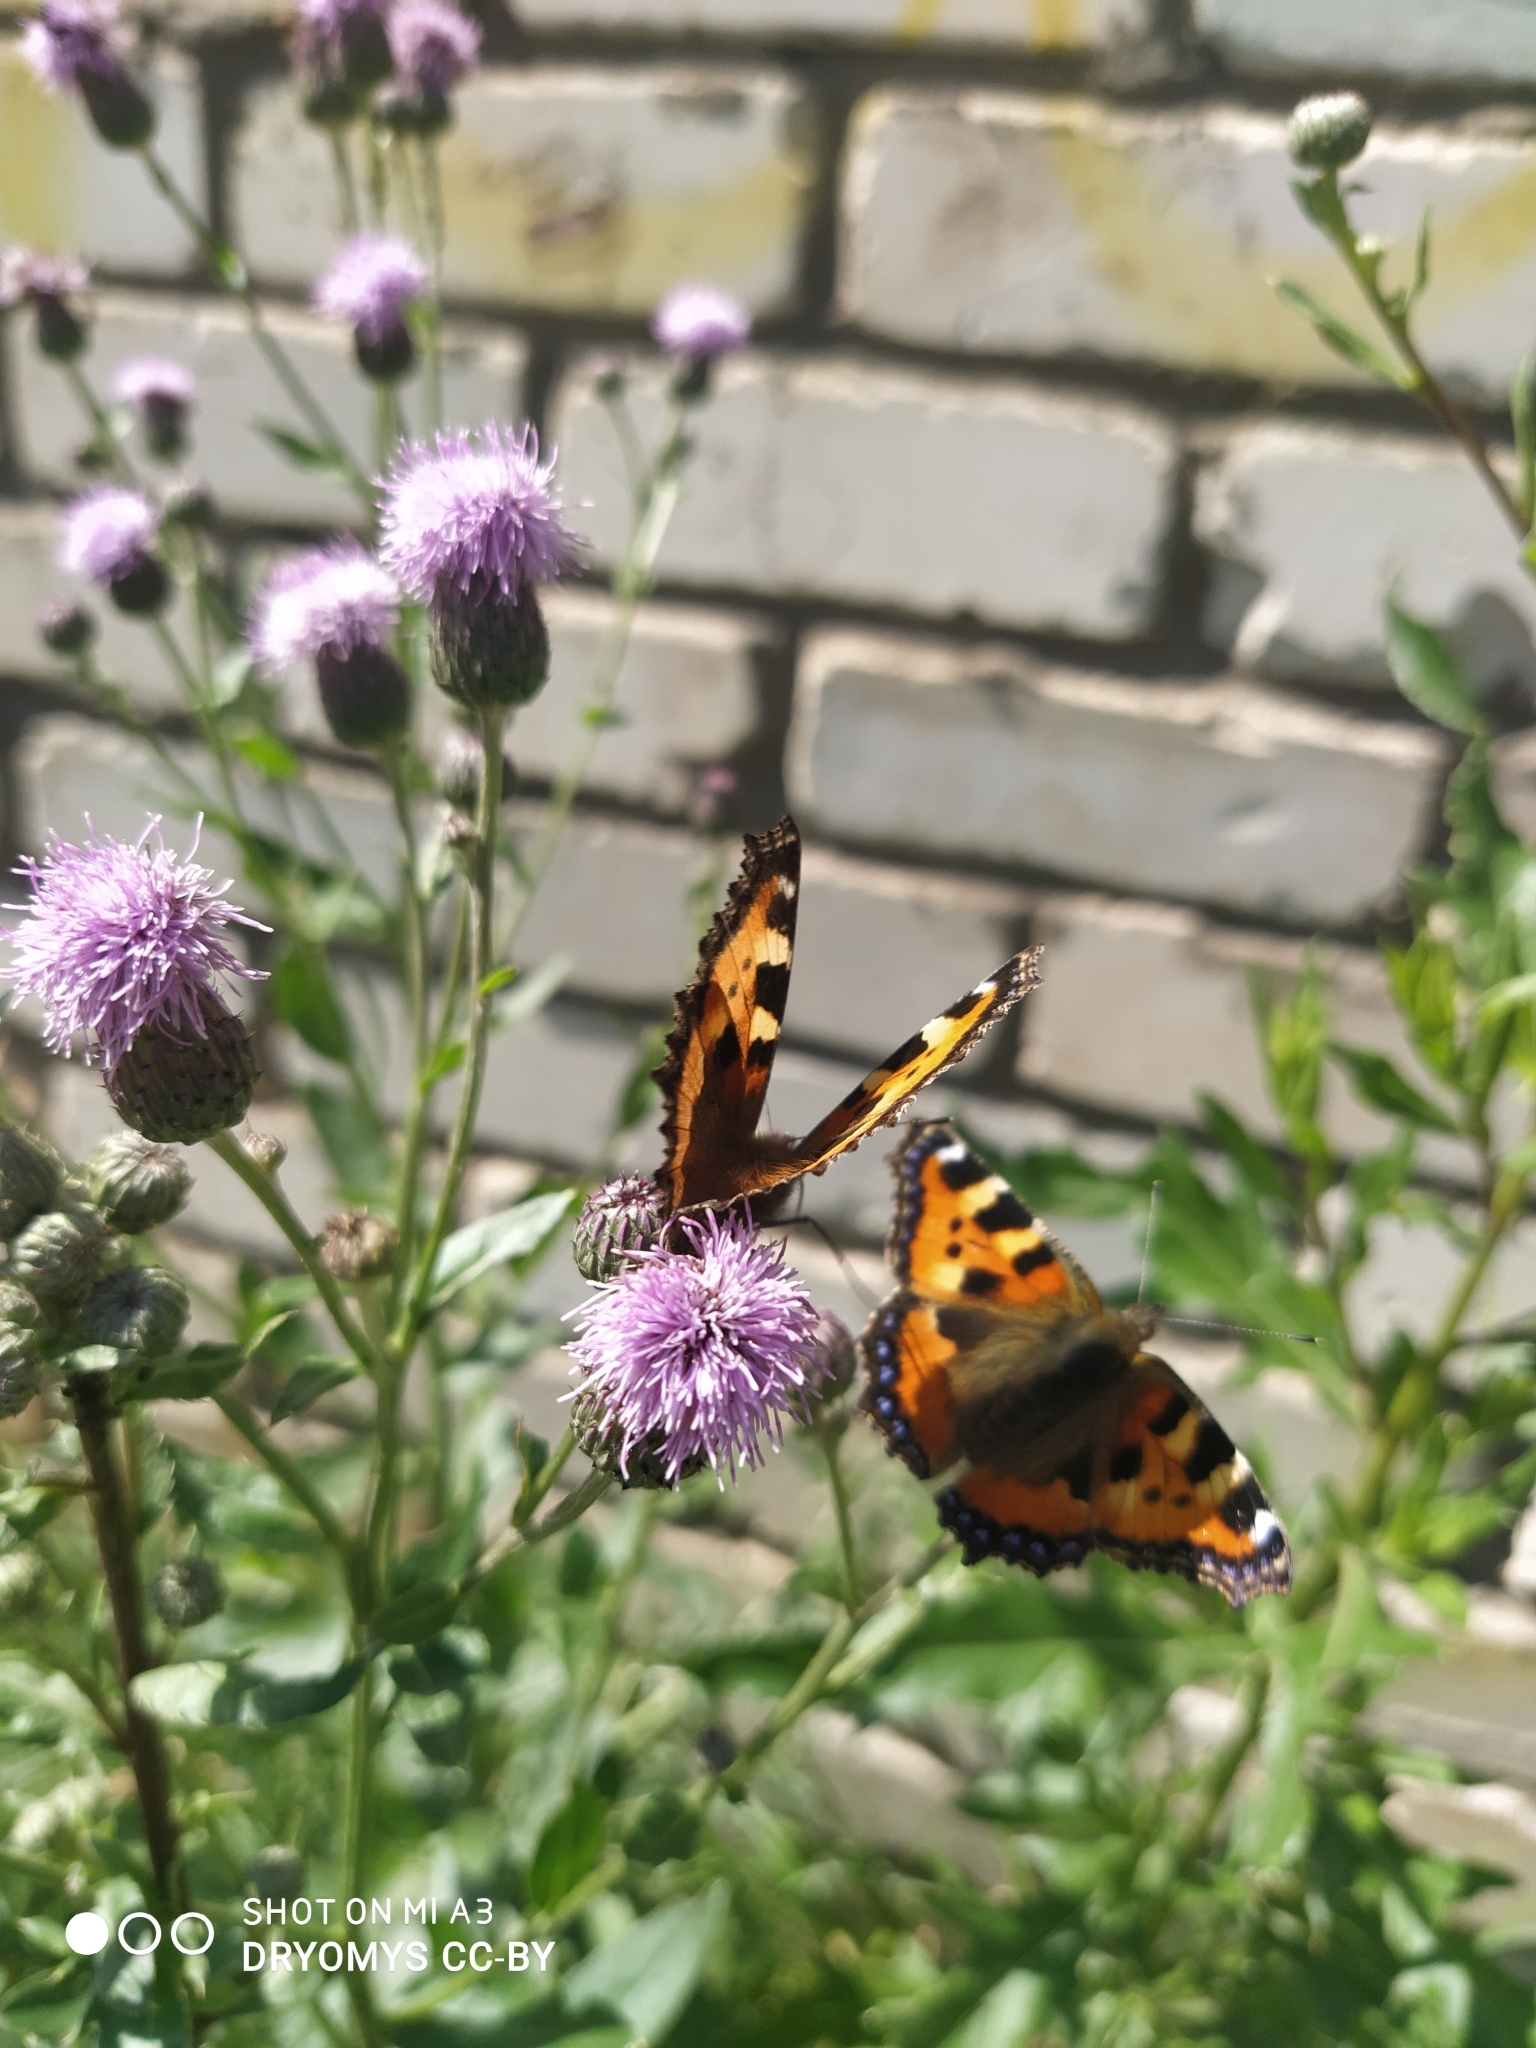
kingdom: Animalia
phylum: Arthropoda
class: Insecta
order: Lepidoptera
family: Nymphalidae
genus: Aglais
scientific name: Aglais urticae
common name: Small tortoiseshell
